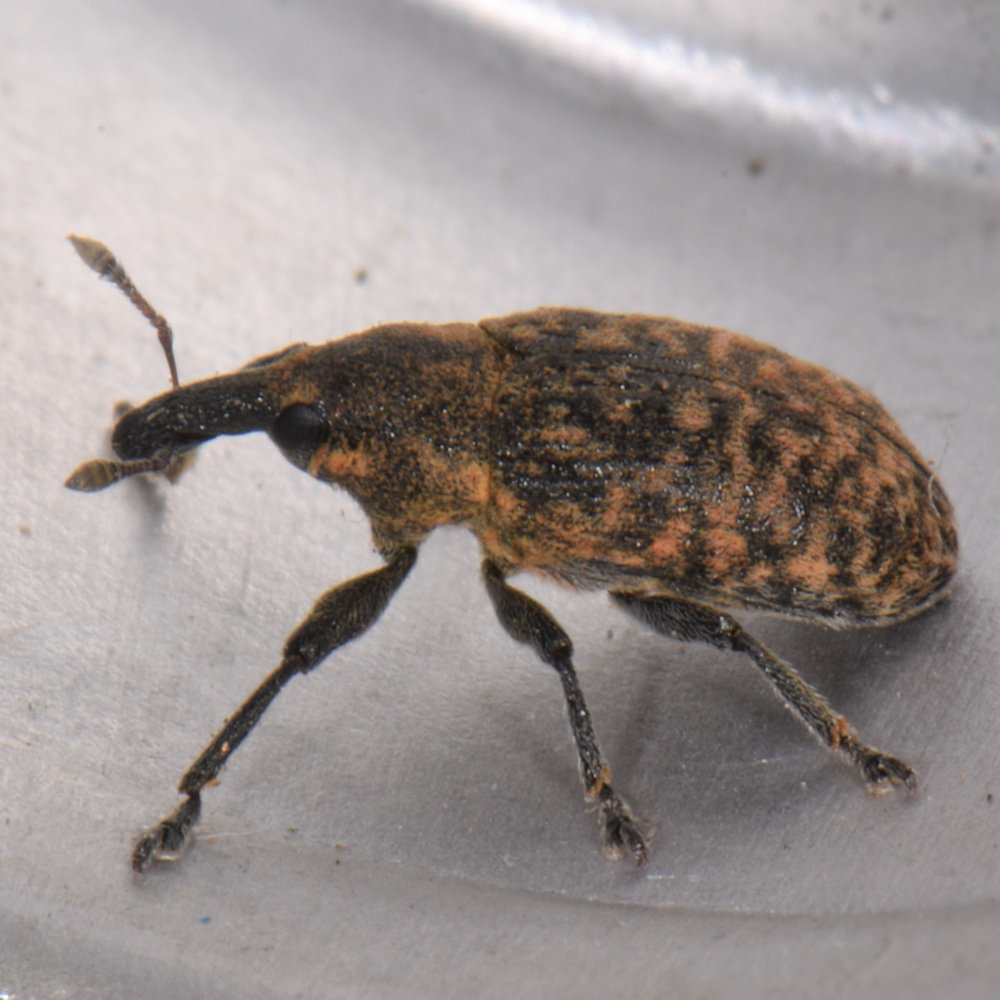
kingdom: Animalia
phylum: Arthropoda
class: Insecta
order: Coleoptera
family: Curculionidae
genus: Larinus
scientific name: Larinus carlinae
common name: Weevil
